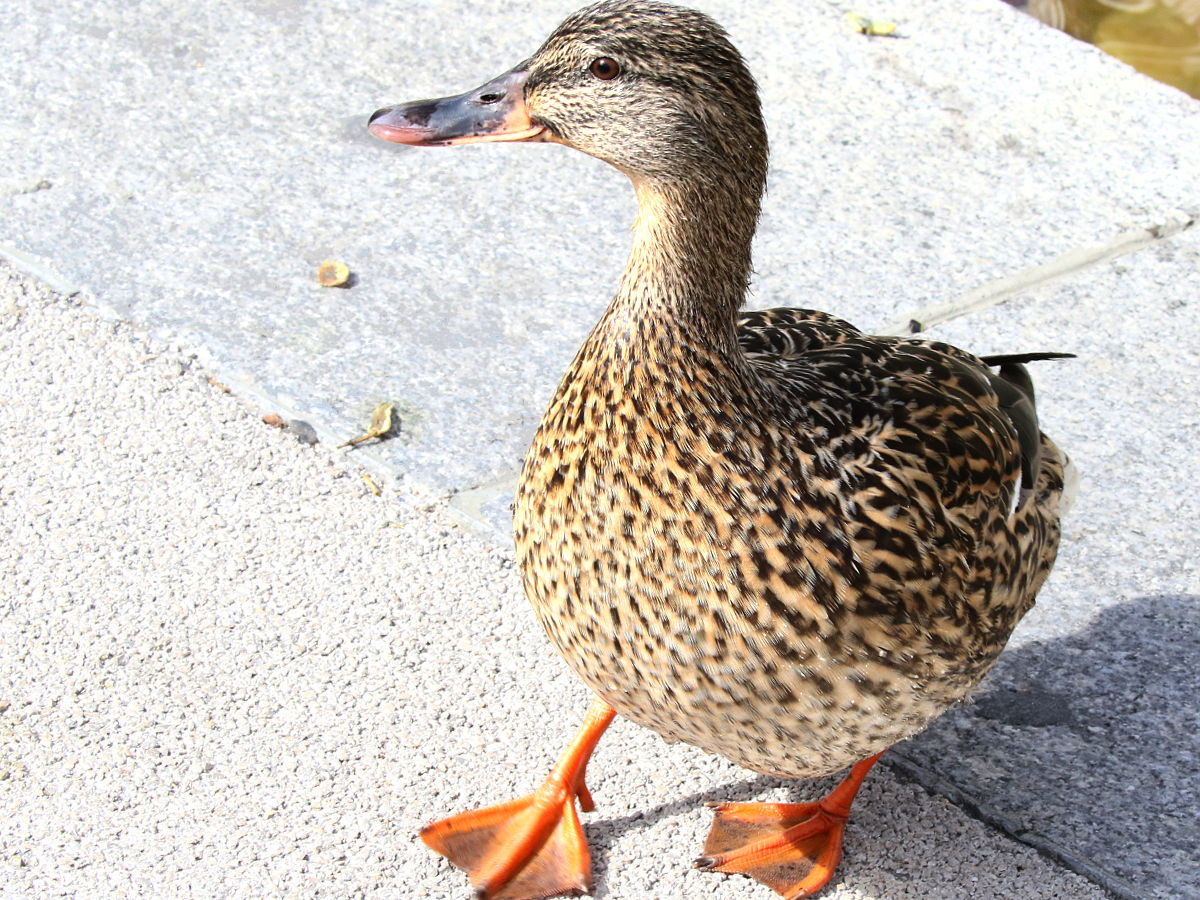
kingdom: Animalia
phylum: Chordata
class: Aves
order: Anseriformes
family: Anatidae
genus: Anas
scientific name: Anas platyrhynchos
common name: Mallard
